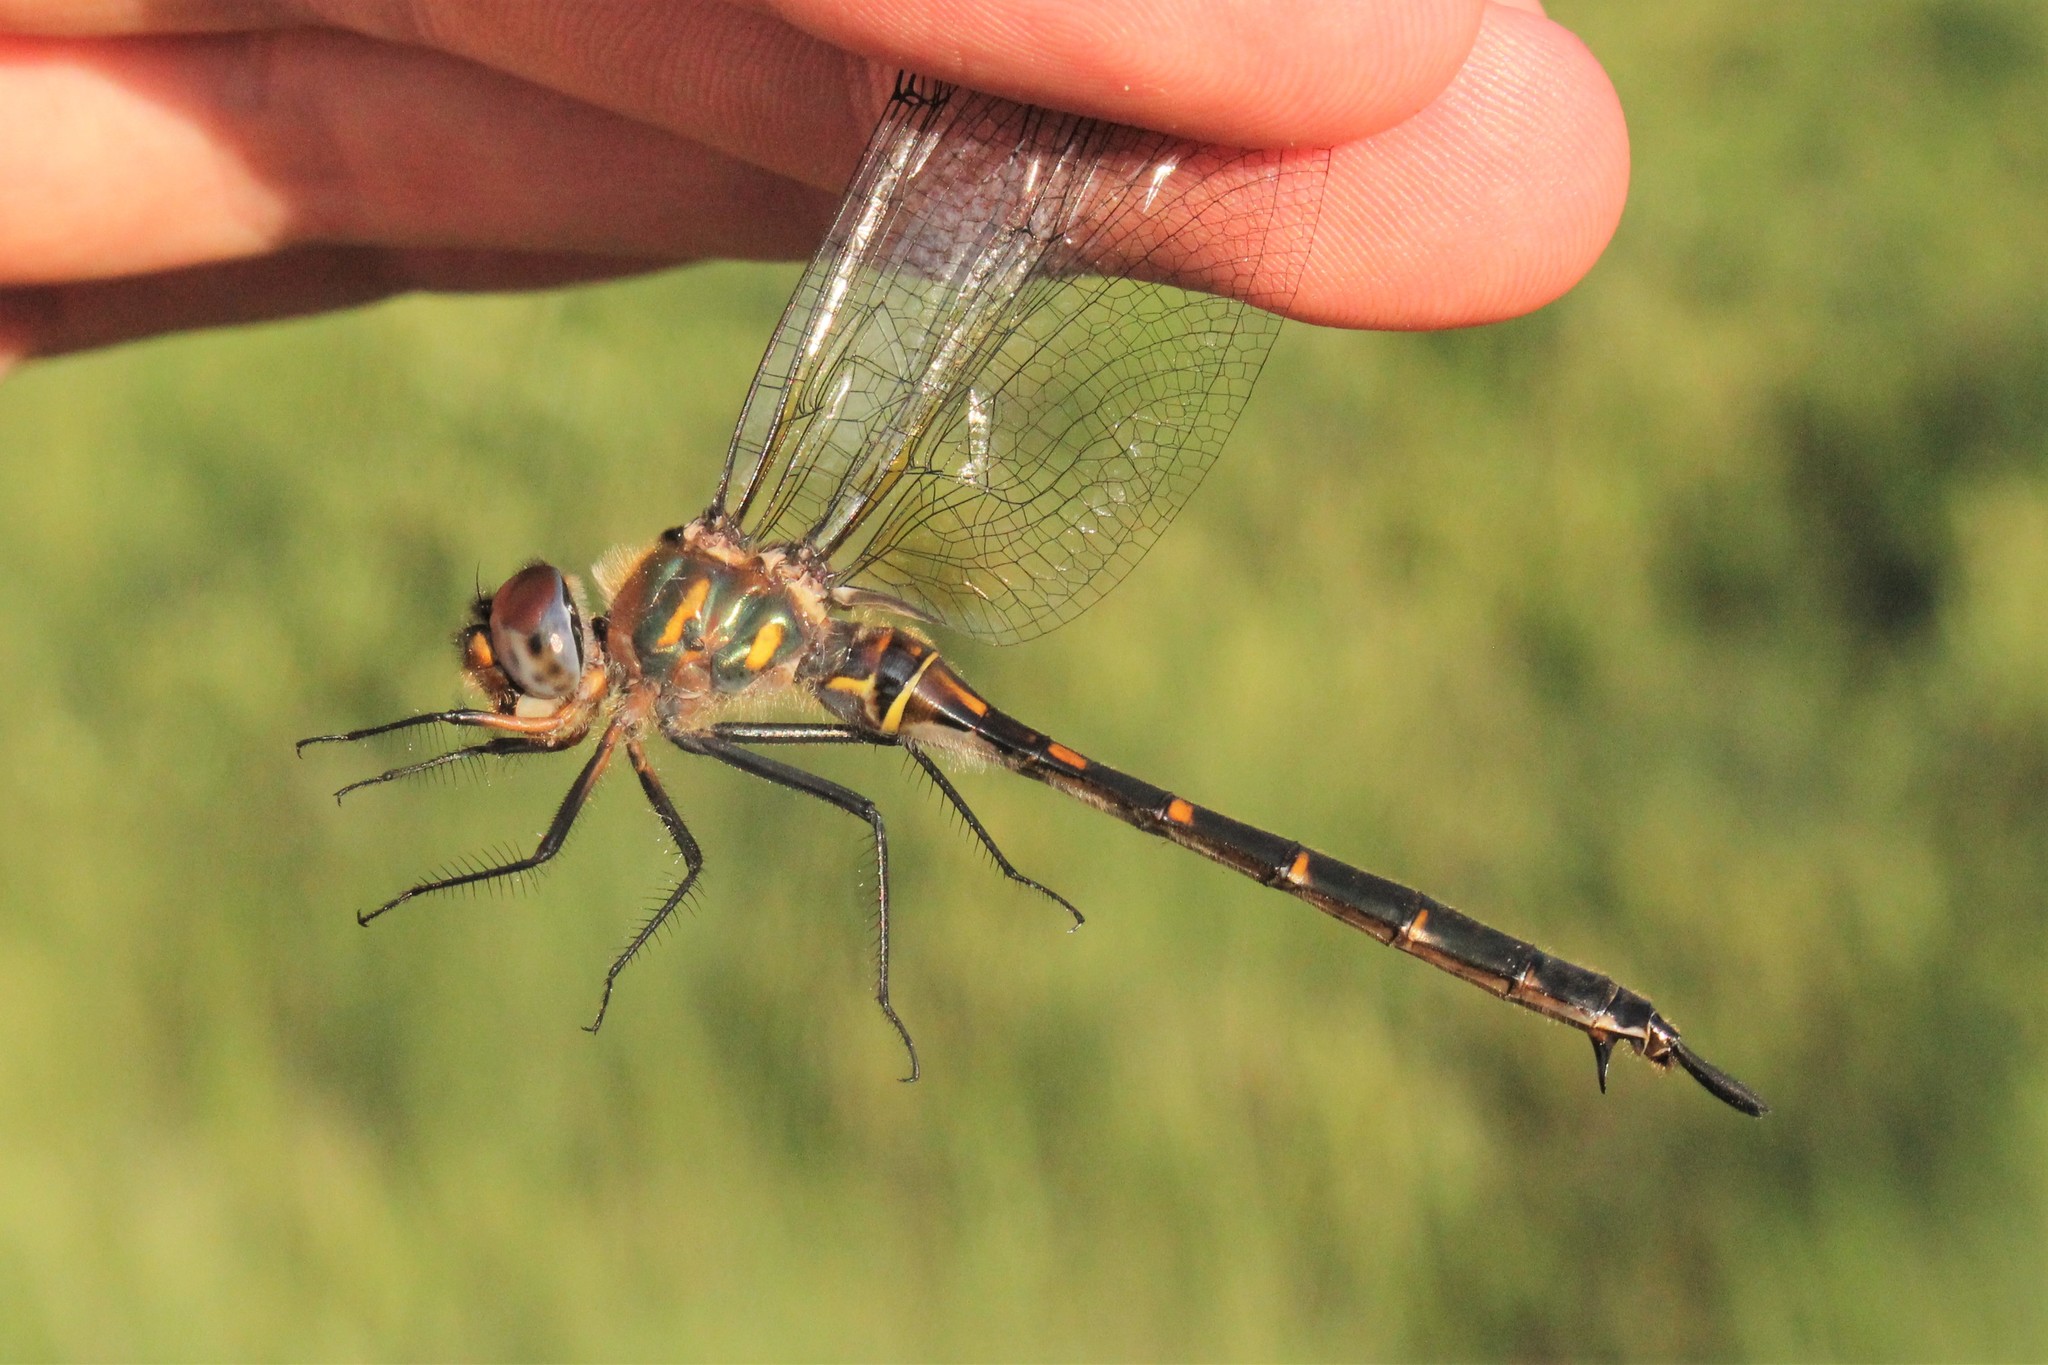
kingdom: Animalia
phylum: Arthropoda
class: Insecta
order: Odonata
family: Corduliidae
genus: Somatochlora
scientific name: Somatochlora williamsoni
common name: Williamson's emerald
